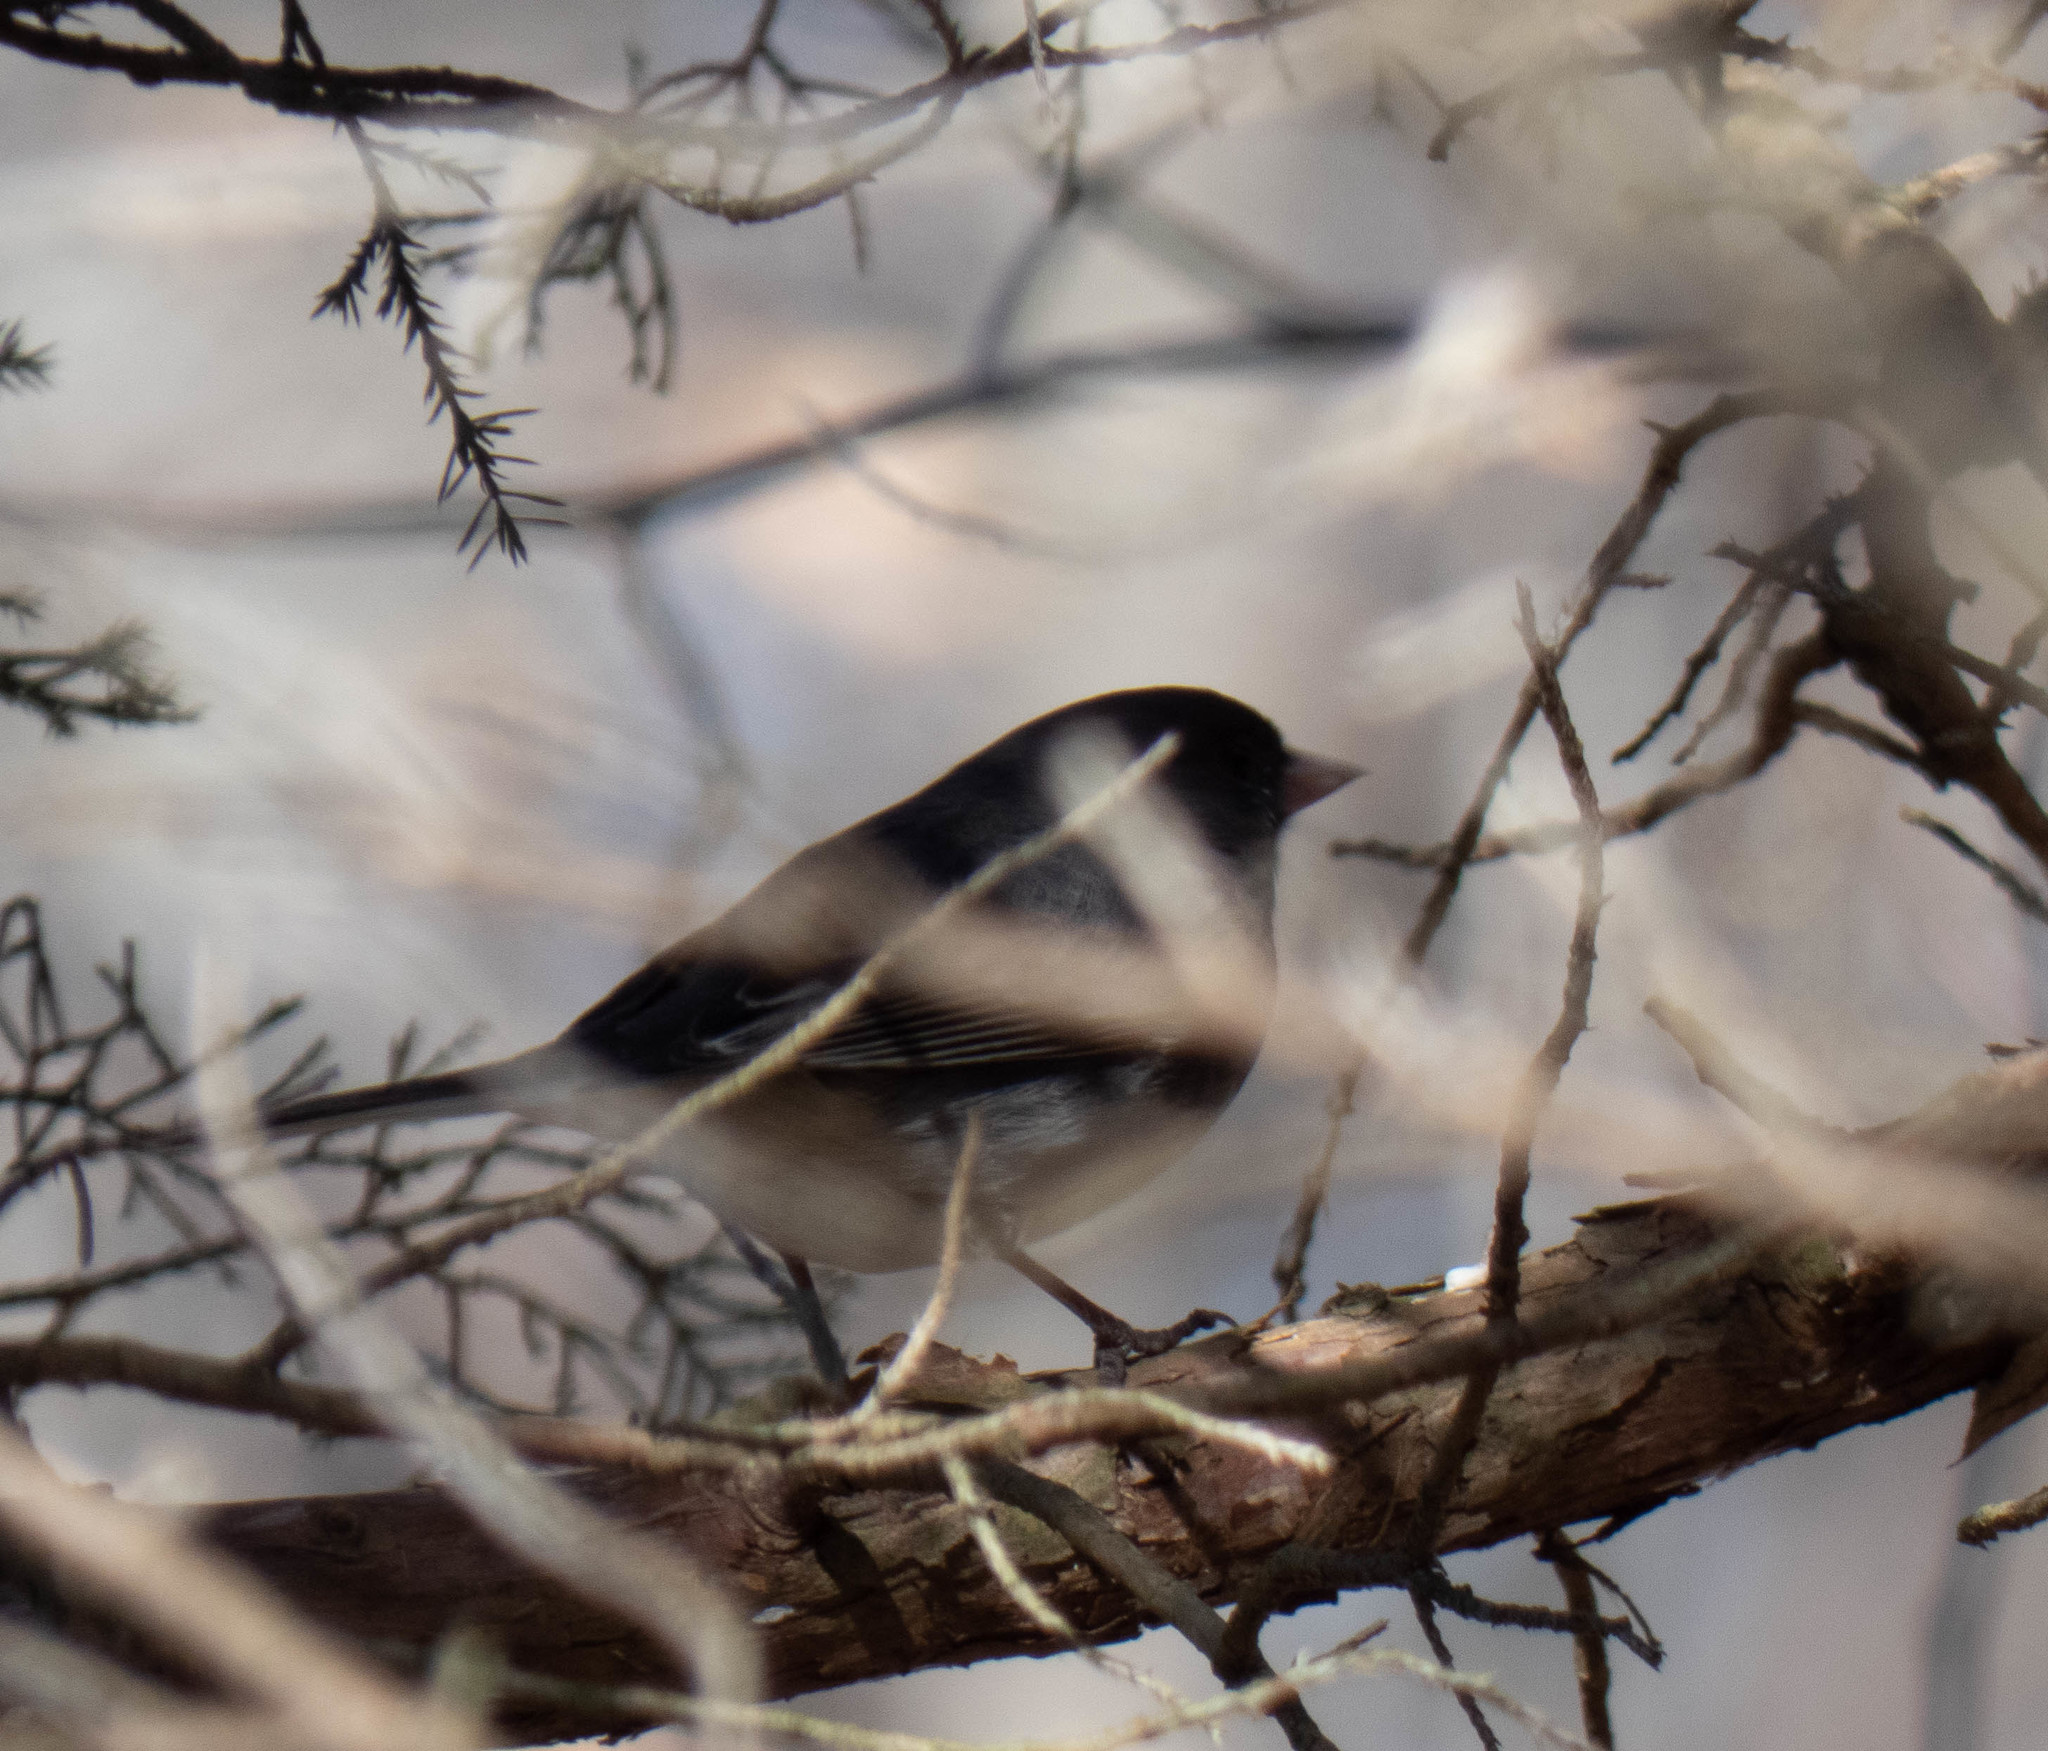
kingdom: Animalia
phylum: Chordata
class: Aves
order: Passeriformes
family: Passerellidae
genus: Junco
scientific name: Junco hyemalis
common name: Dark-eyed junco
